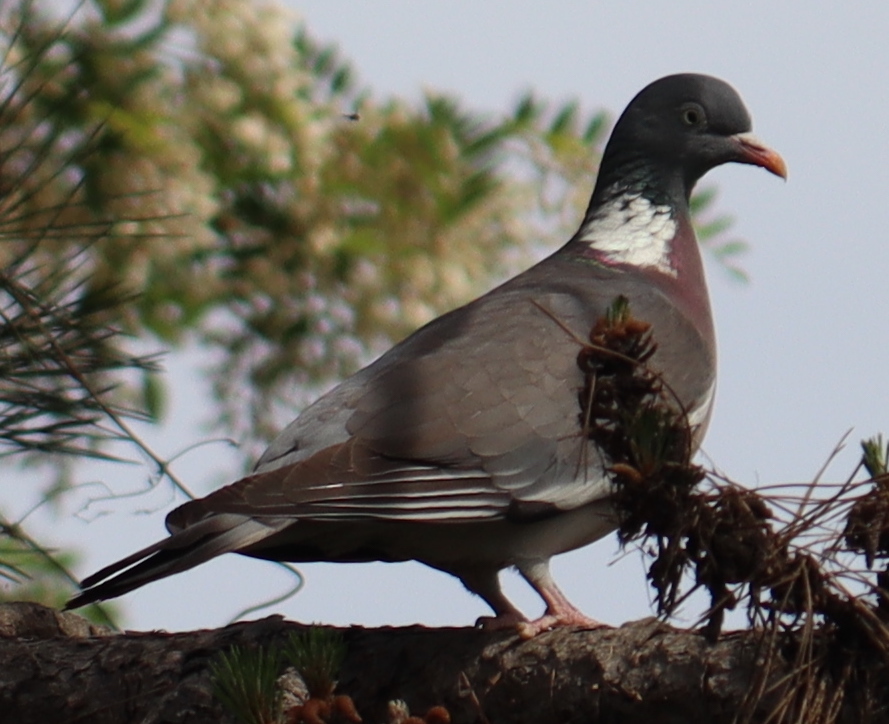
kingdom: Animalia
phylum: Chordata
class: Aves
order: Columbiformes
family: Columbidae
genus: Columba
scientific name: Columba palumbus
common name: Common wood pigeon
